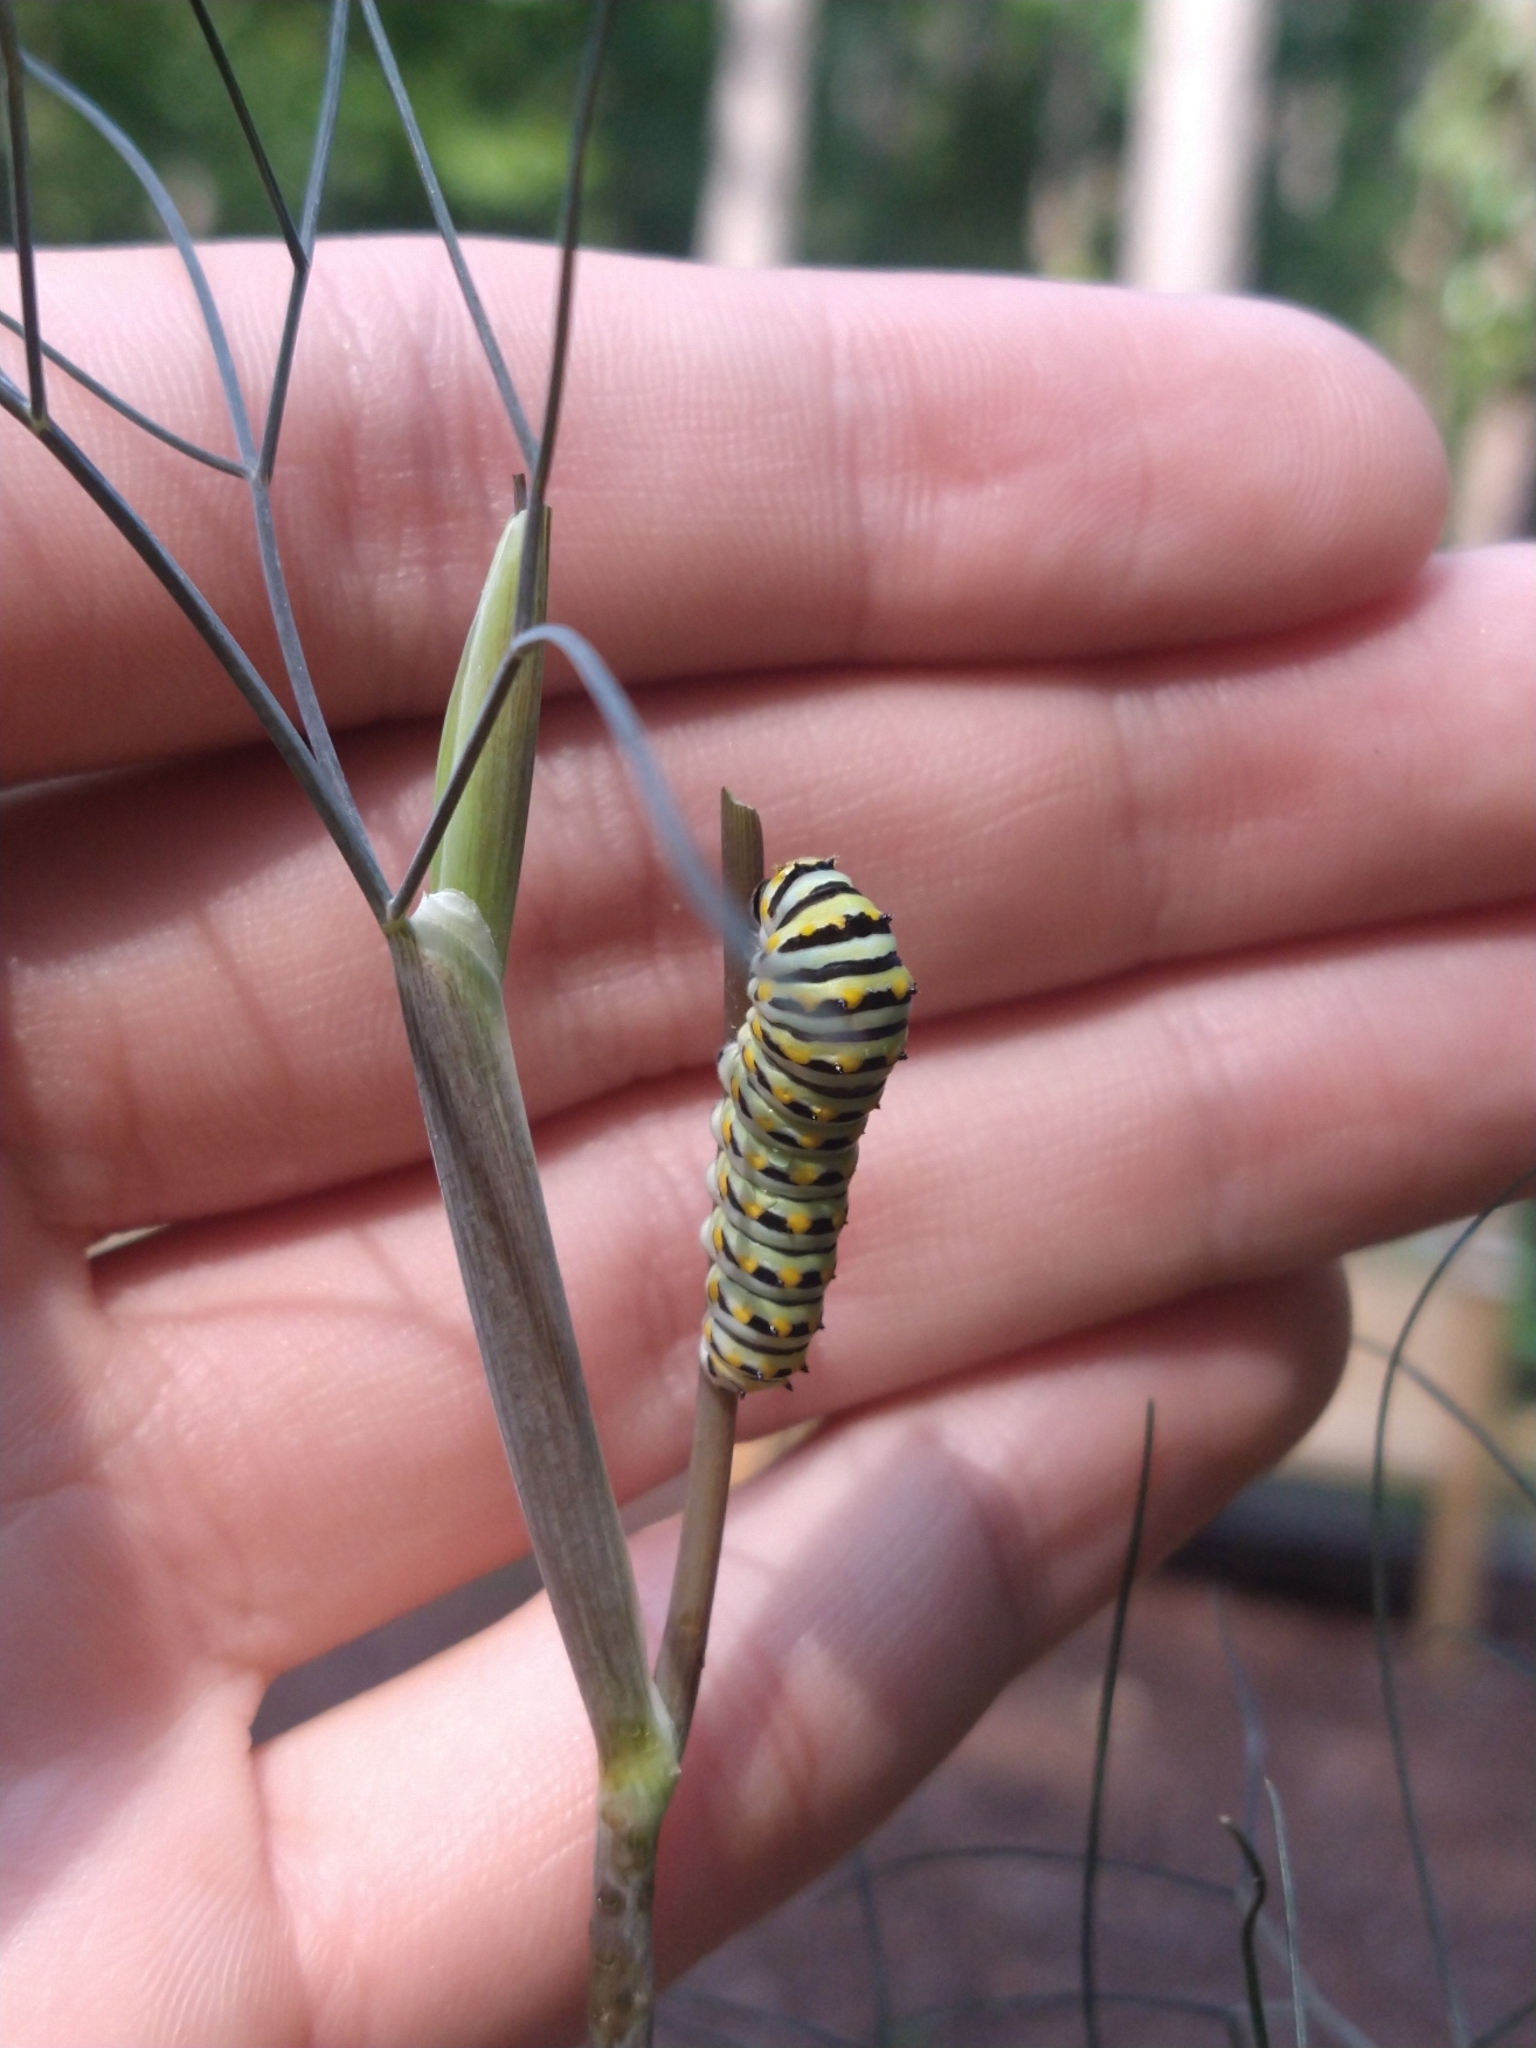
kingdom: Animalia
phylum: Arthropoda
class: Insecta
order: Lepidoptera
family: Papilionidae
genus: Papilio
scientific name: Papilio polyxenes
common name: Black swallowtail
